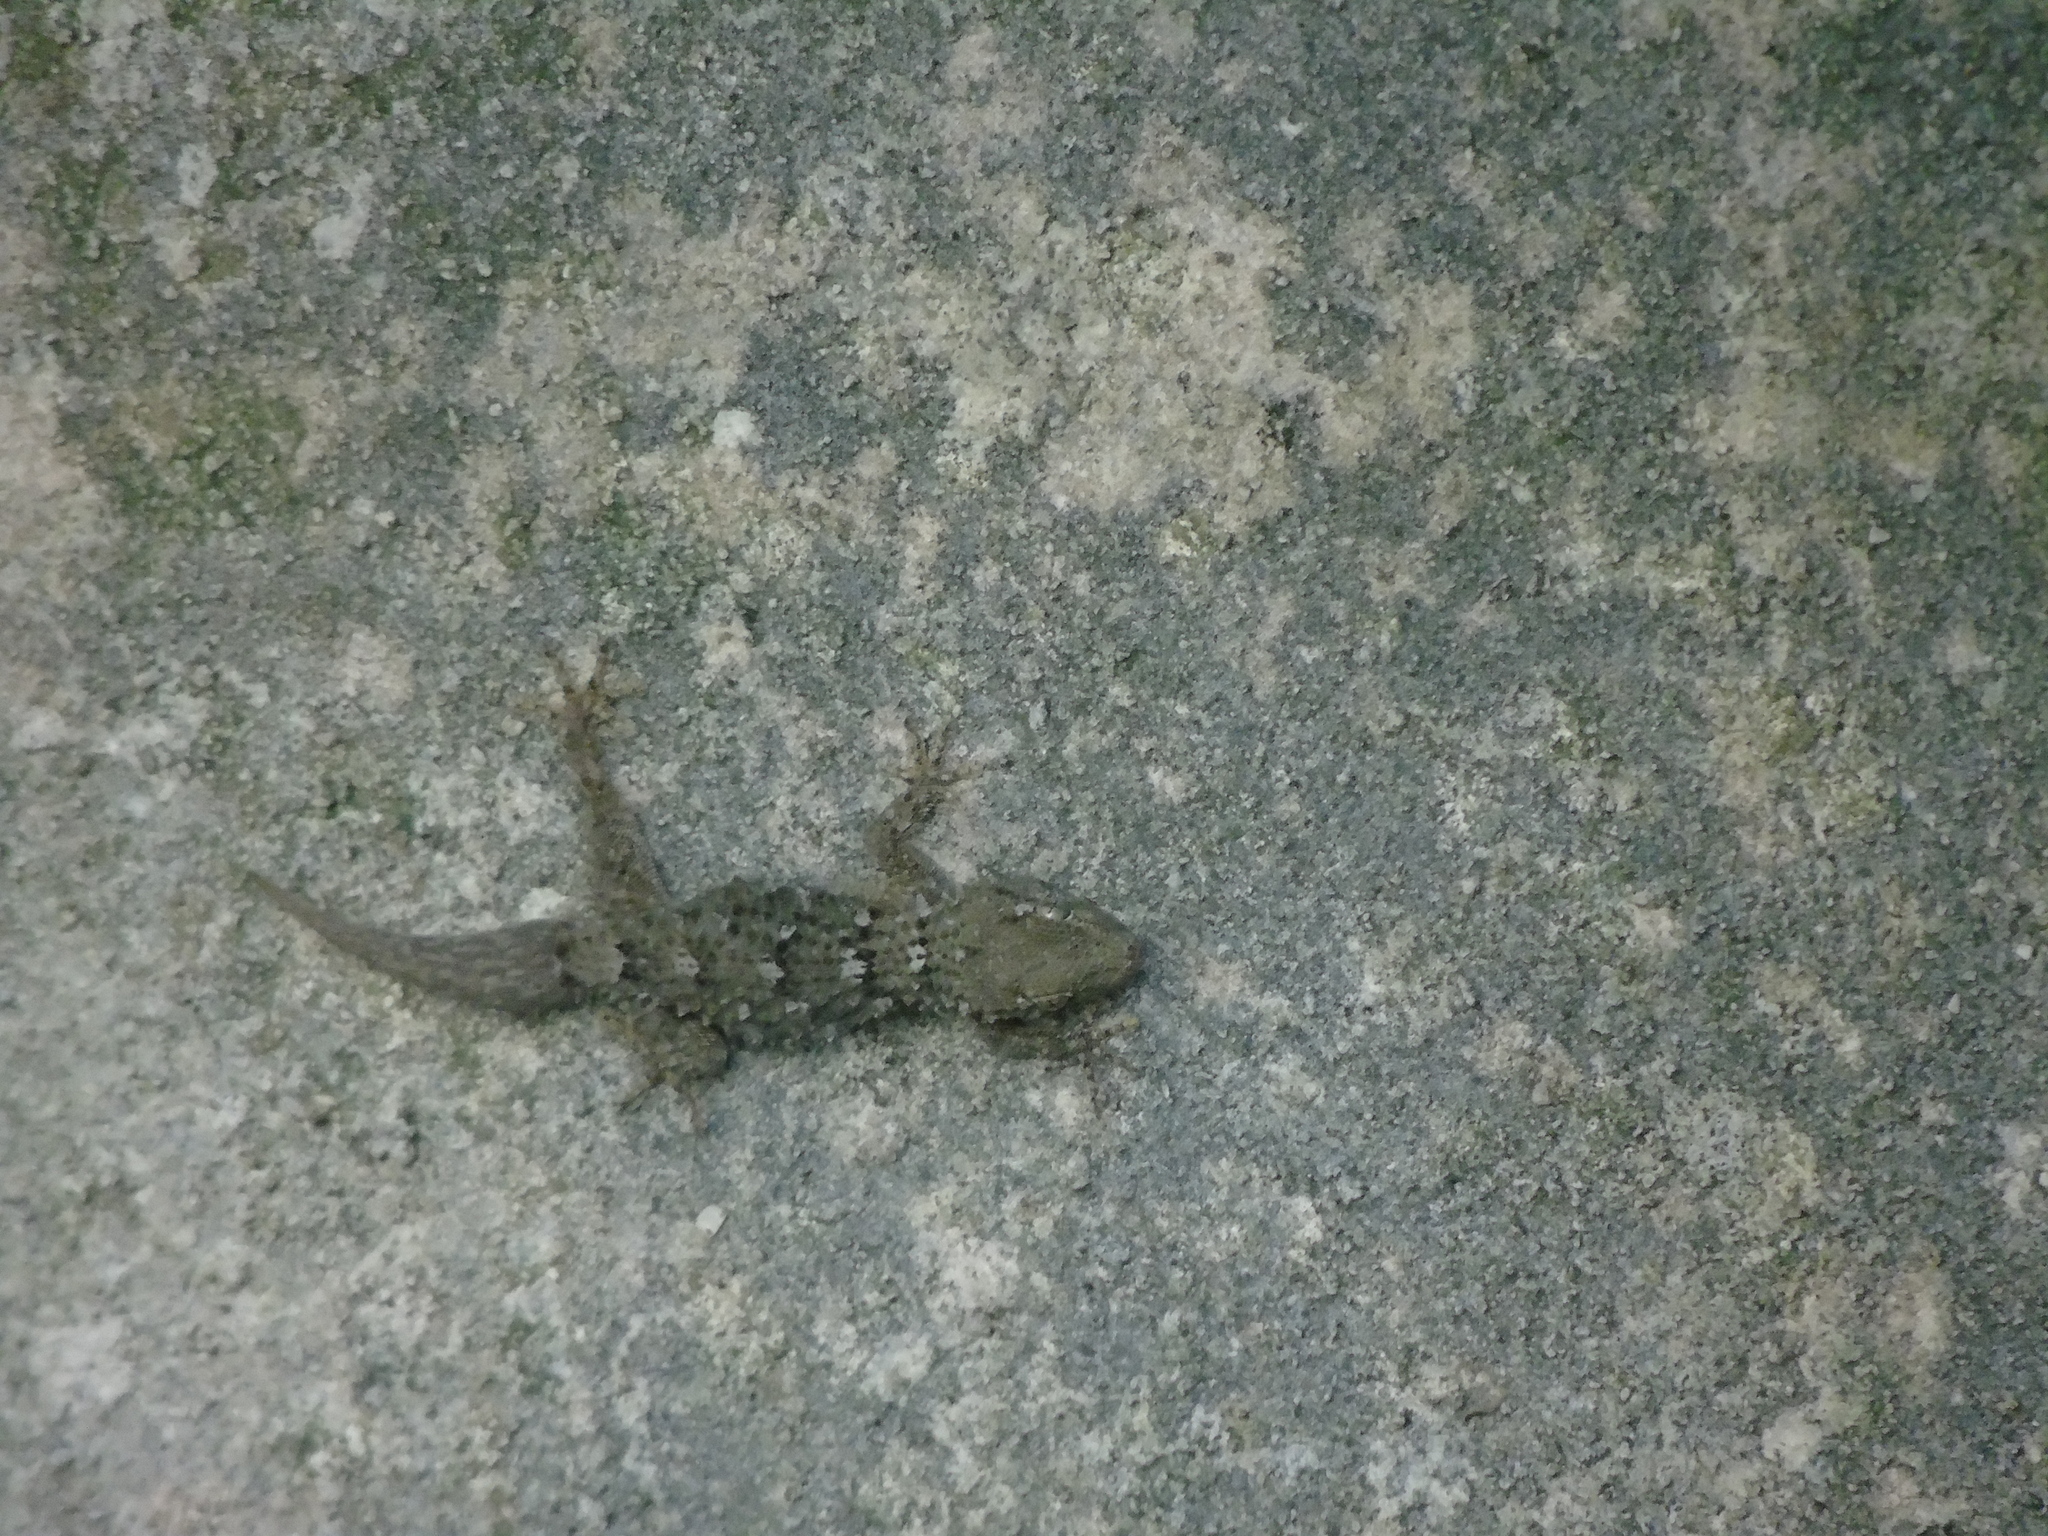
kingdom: Animalia
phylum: Chordata
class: Squamata
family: Phyllodactylidae
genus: Tarentola
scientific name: Tarentola mauritanica
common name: Moorish gecko
